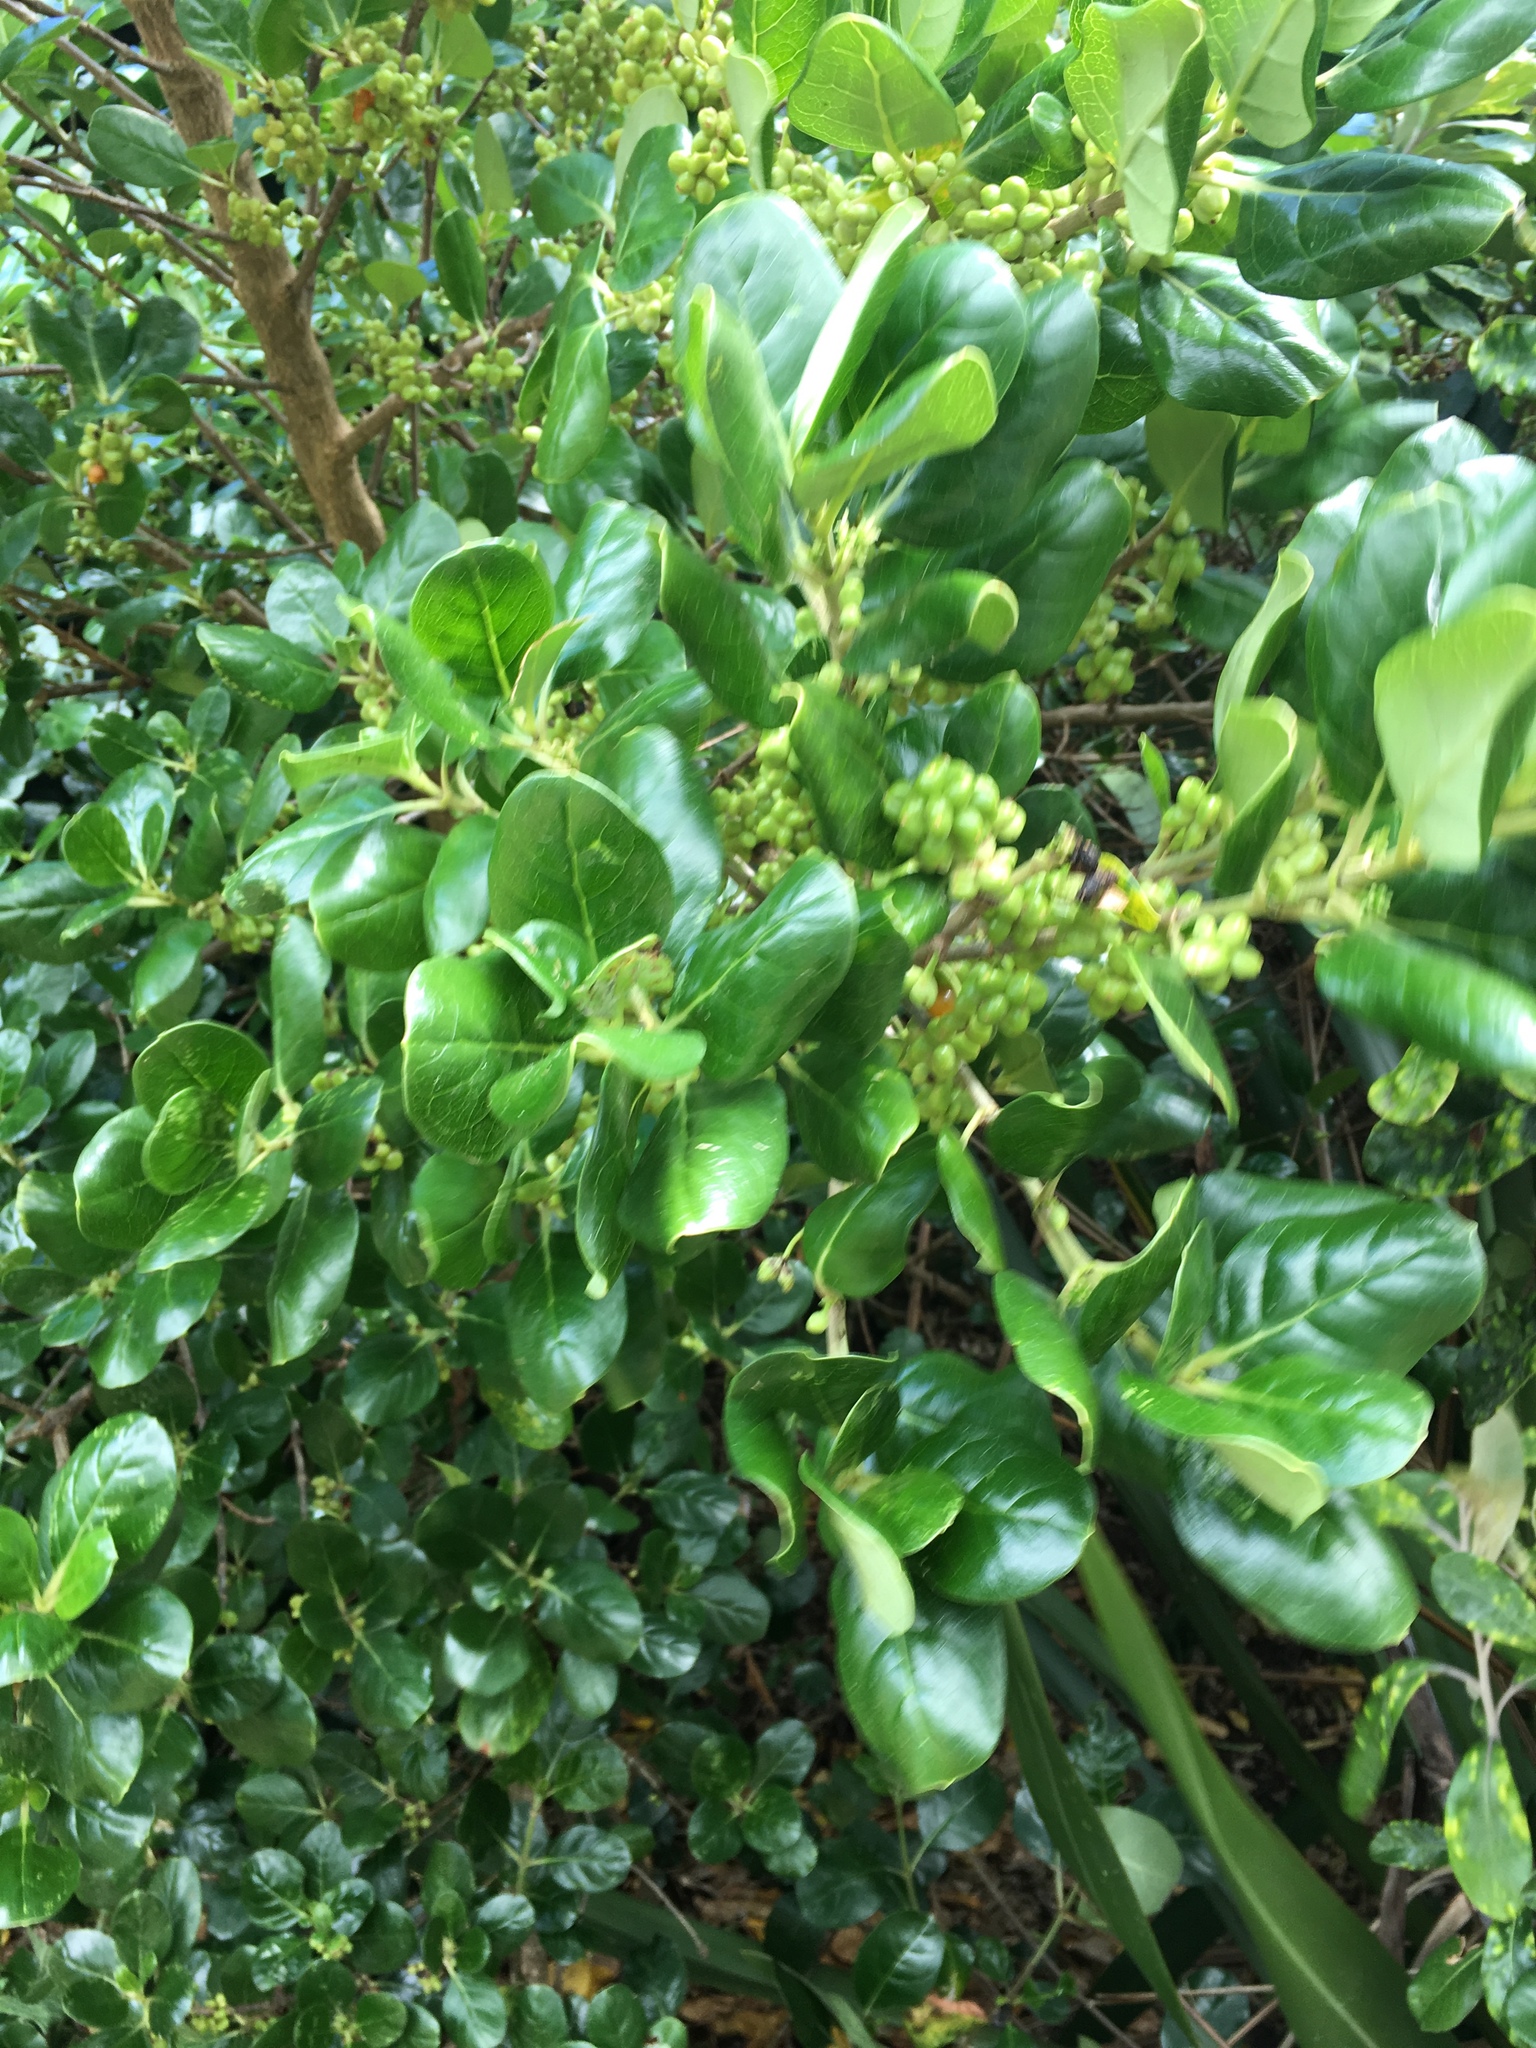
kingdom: Plantae
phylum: Tracheophyta
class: Magnoliopsida
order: Gentianales
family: Rubiaceae
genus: Coprosma
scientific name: Coprosma repens
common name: Tree bedstraw
